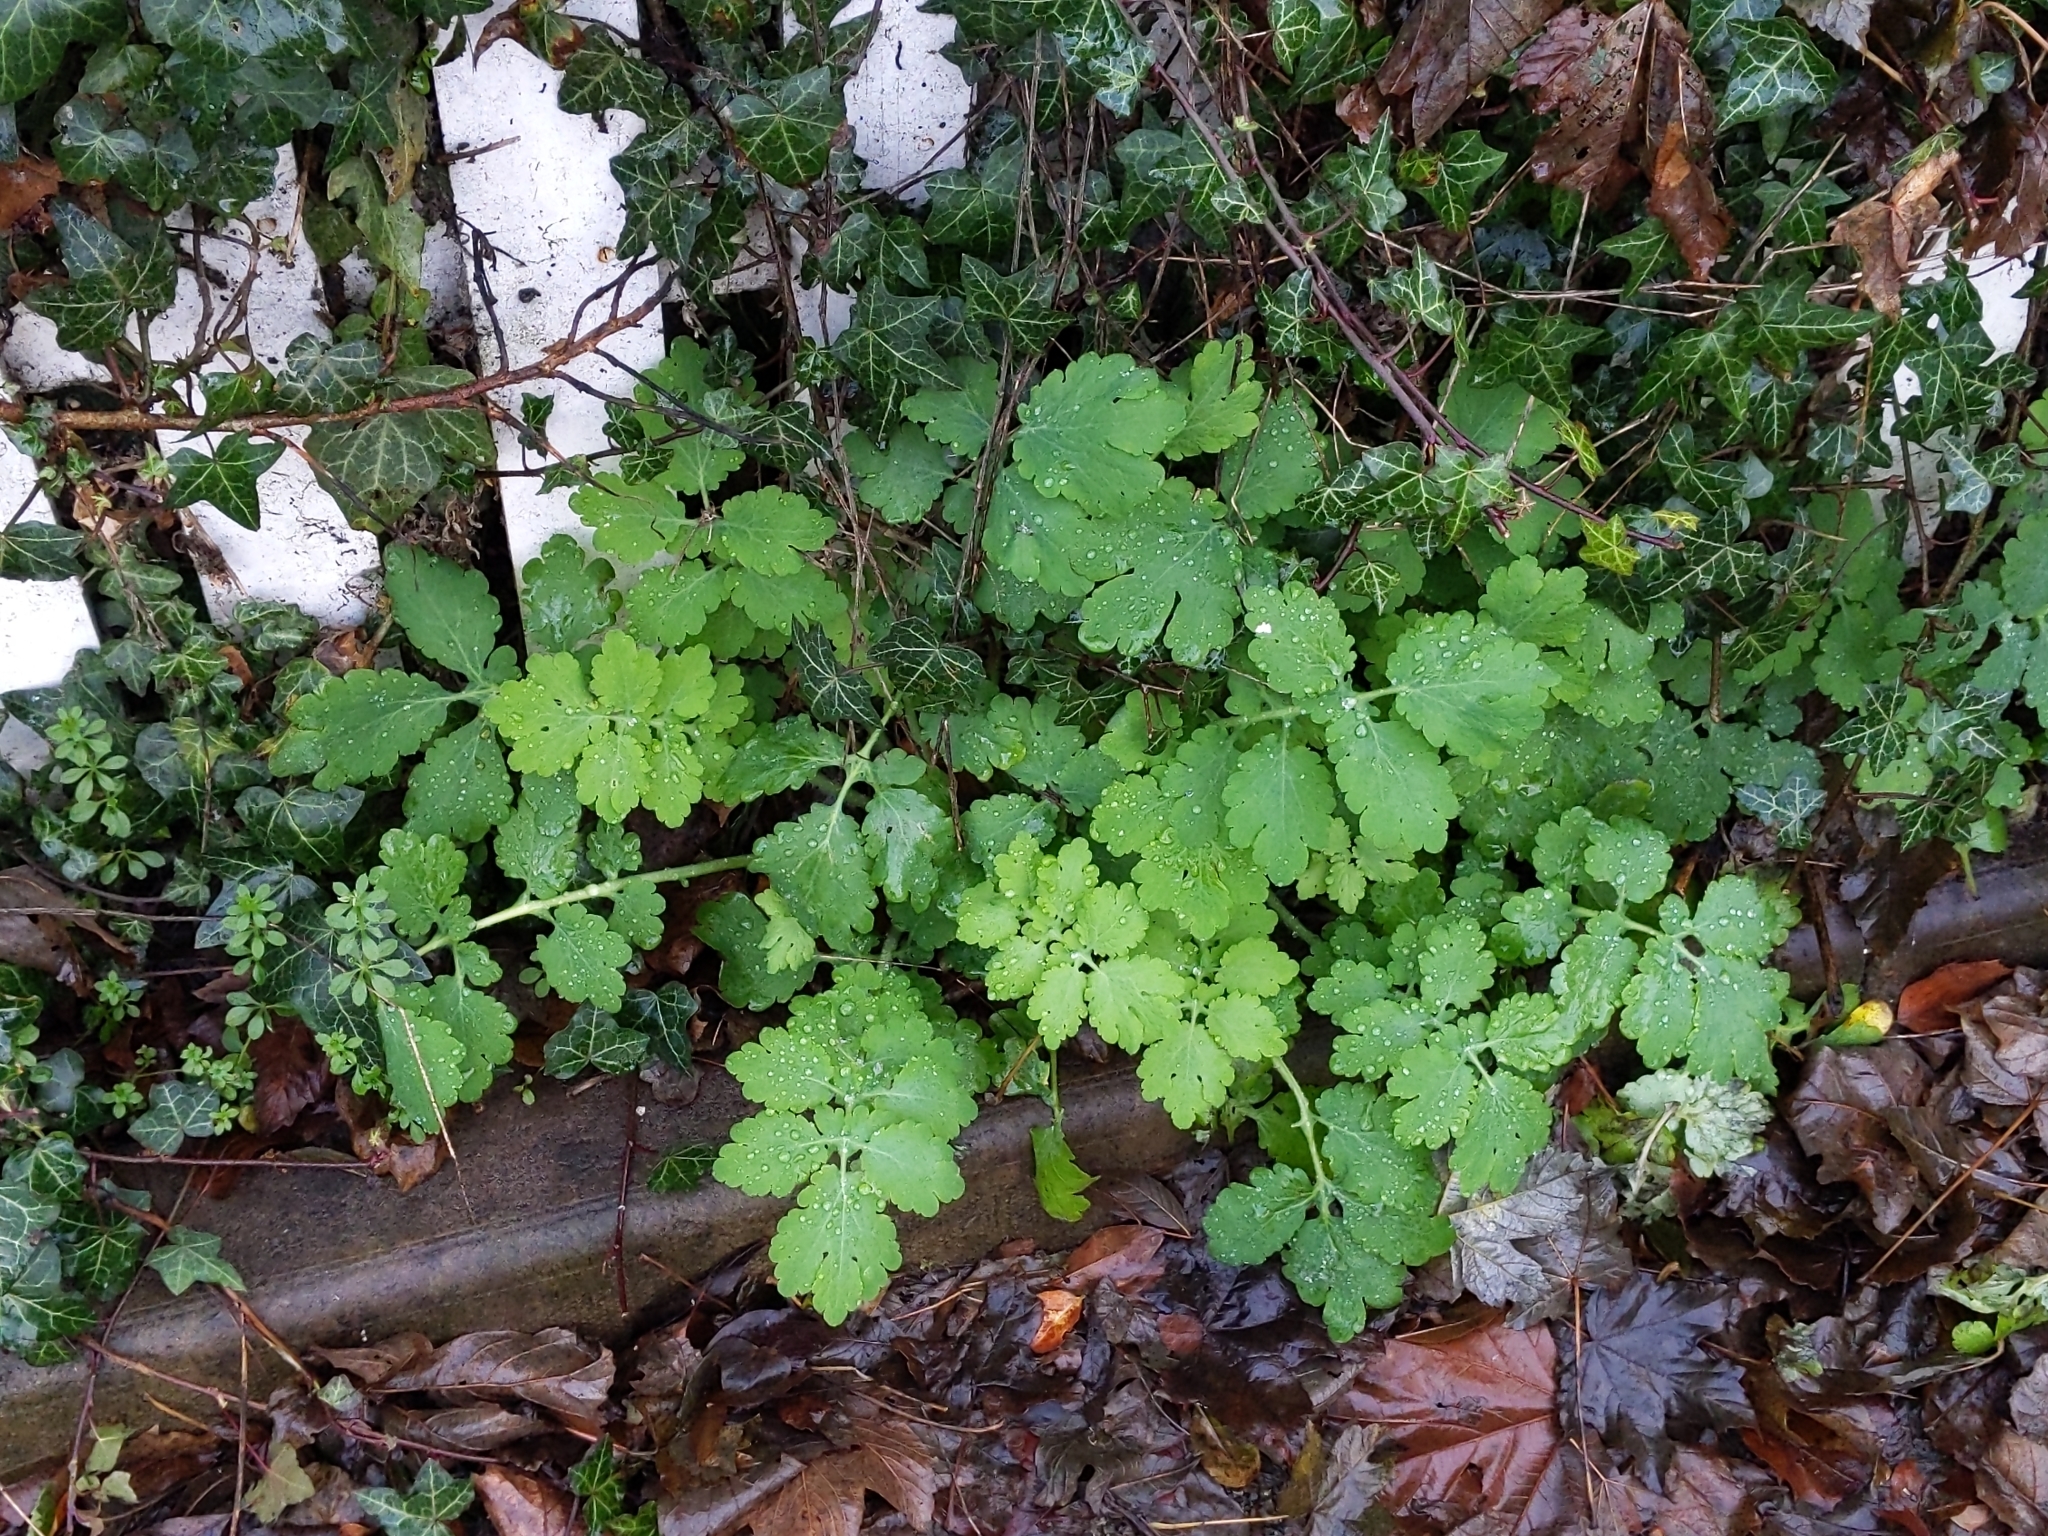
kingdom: Plantae
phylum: Tracheophyta
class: Magnoliopsida
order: Ranunculales
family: Papaveraceae
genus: Chelidonium
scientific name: Chelidonium majus
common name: Greater celandine
